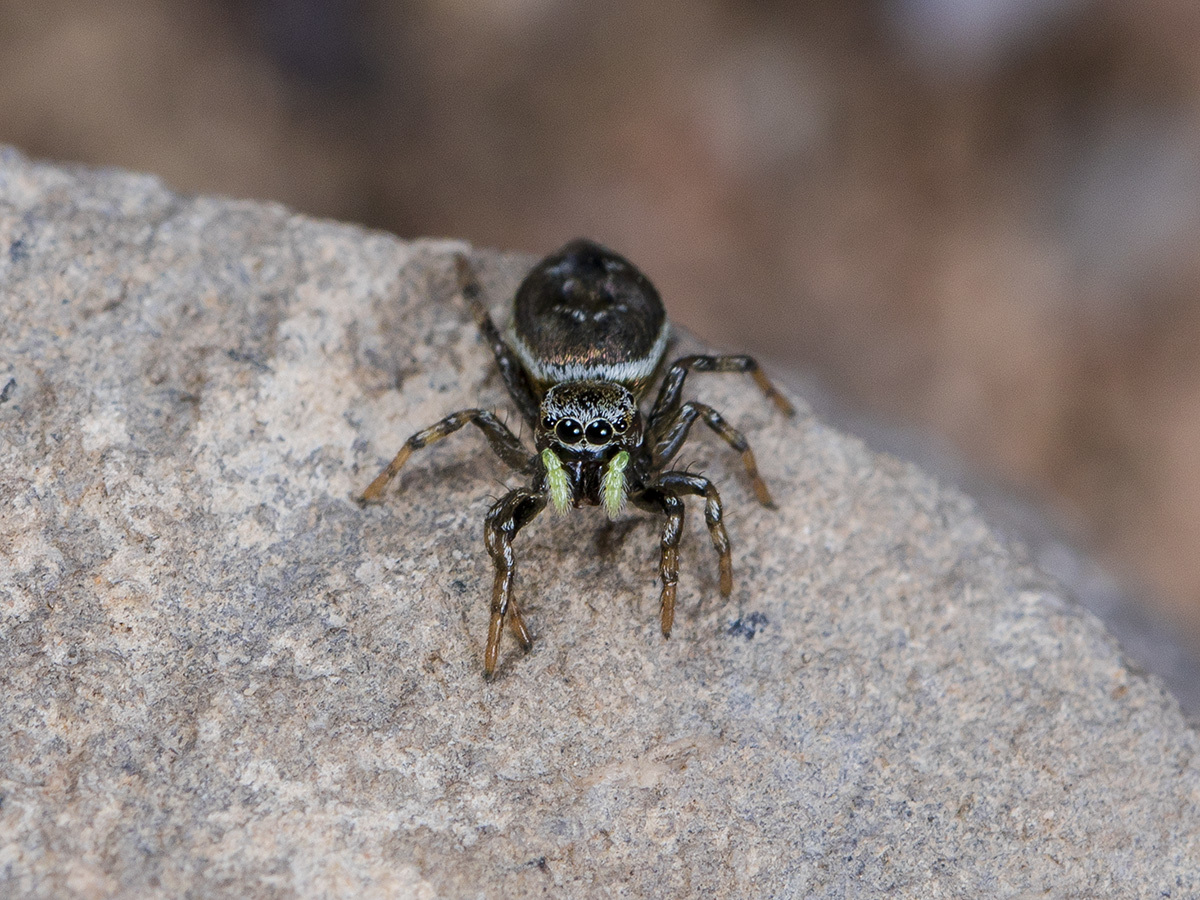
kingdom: Animalia
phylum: Arthropoda
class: Arachnida
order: Araneae
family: Salticidae
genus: Heliophanus
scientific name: Heliophanus potanini
